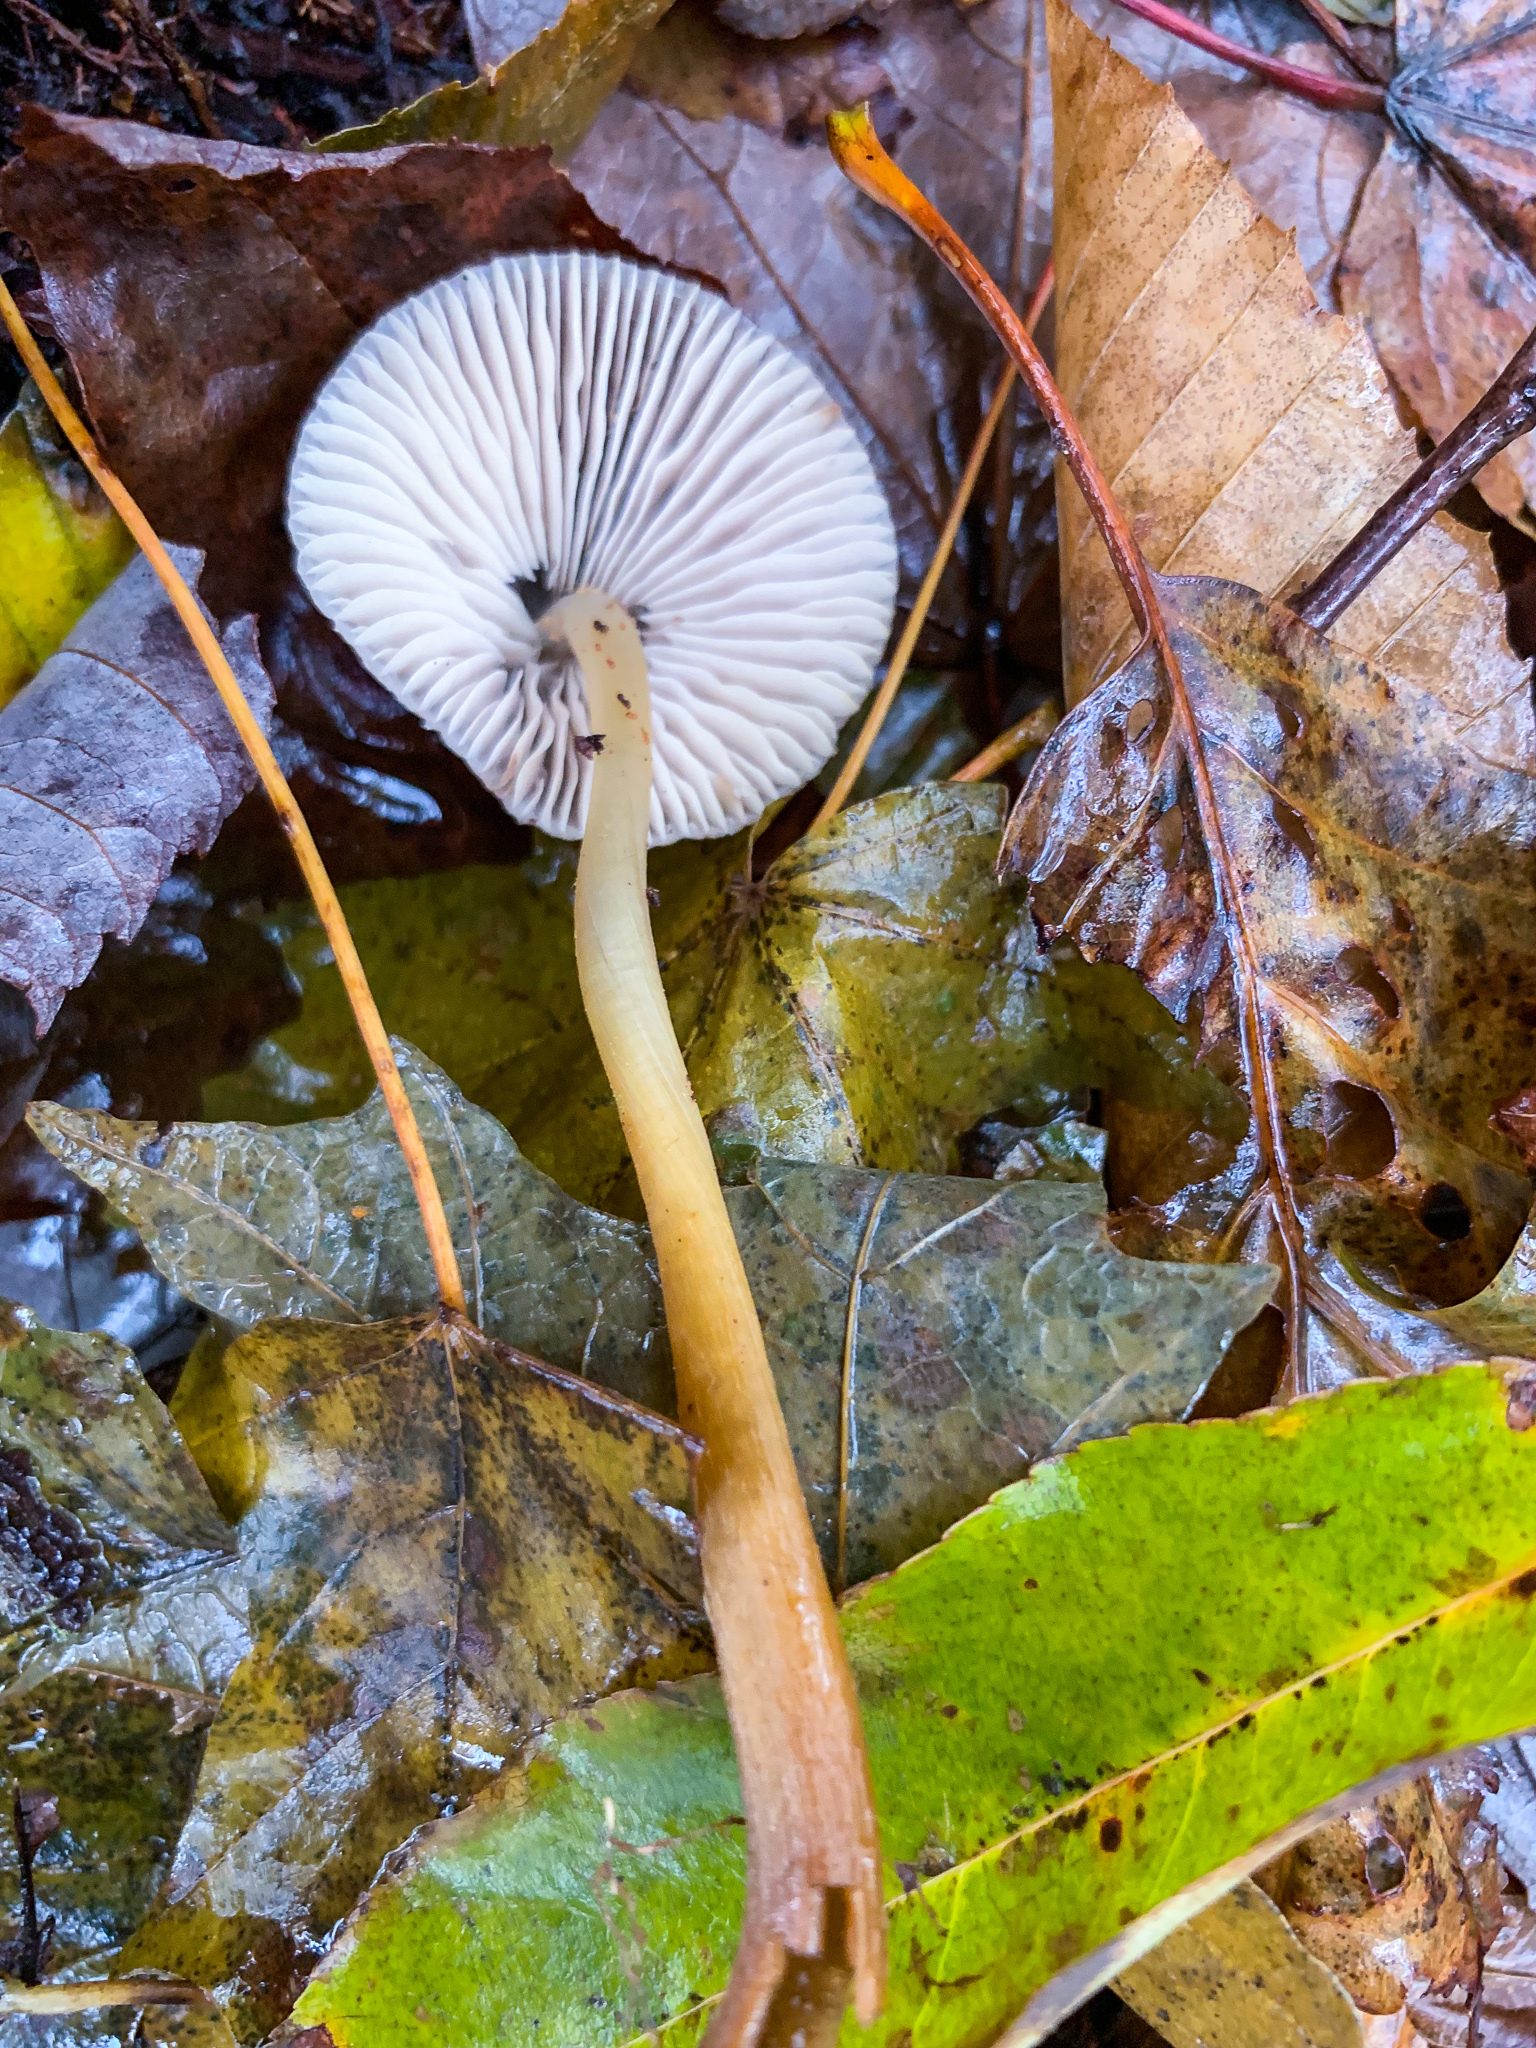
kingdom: Fungi
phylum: Basidiomycota
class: Agaricomycetes
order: Agaricales
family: Mycenaceae
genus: Mycena
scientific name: Mycena inclinata
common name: Clustered bonnet
